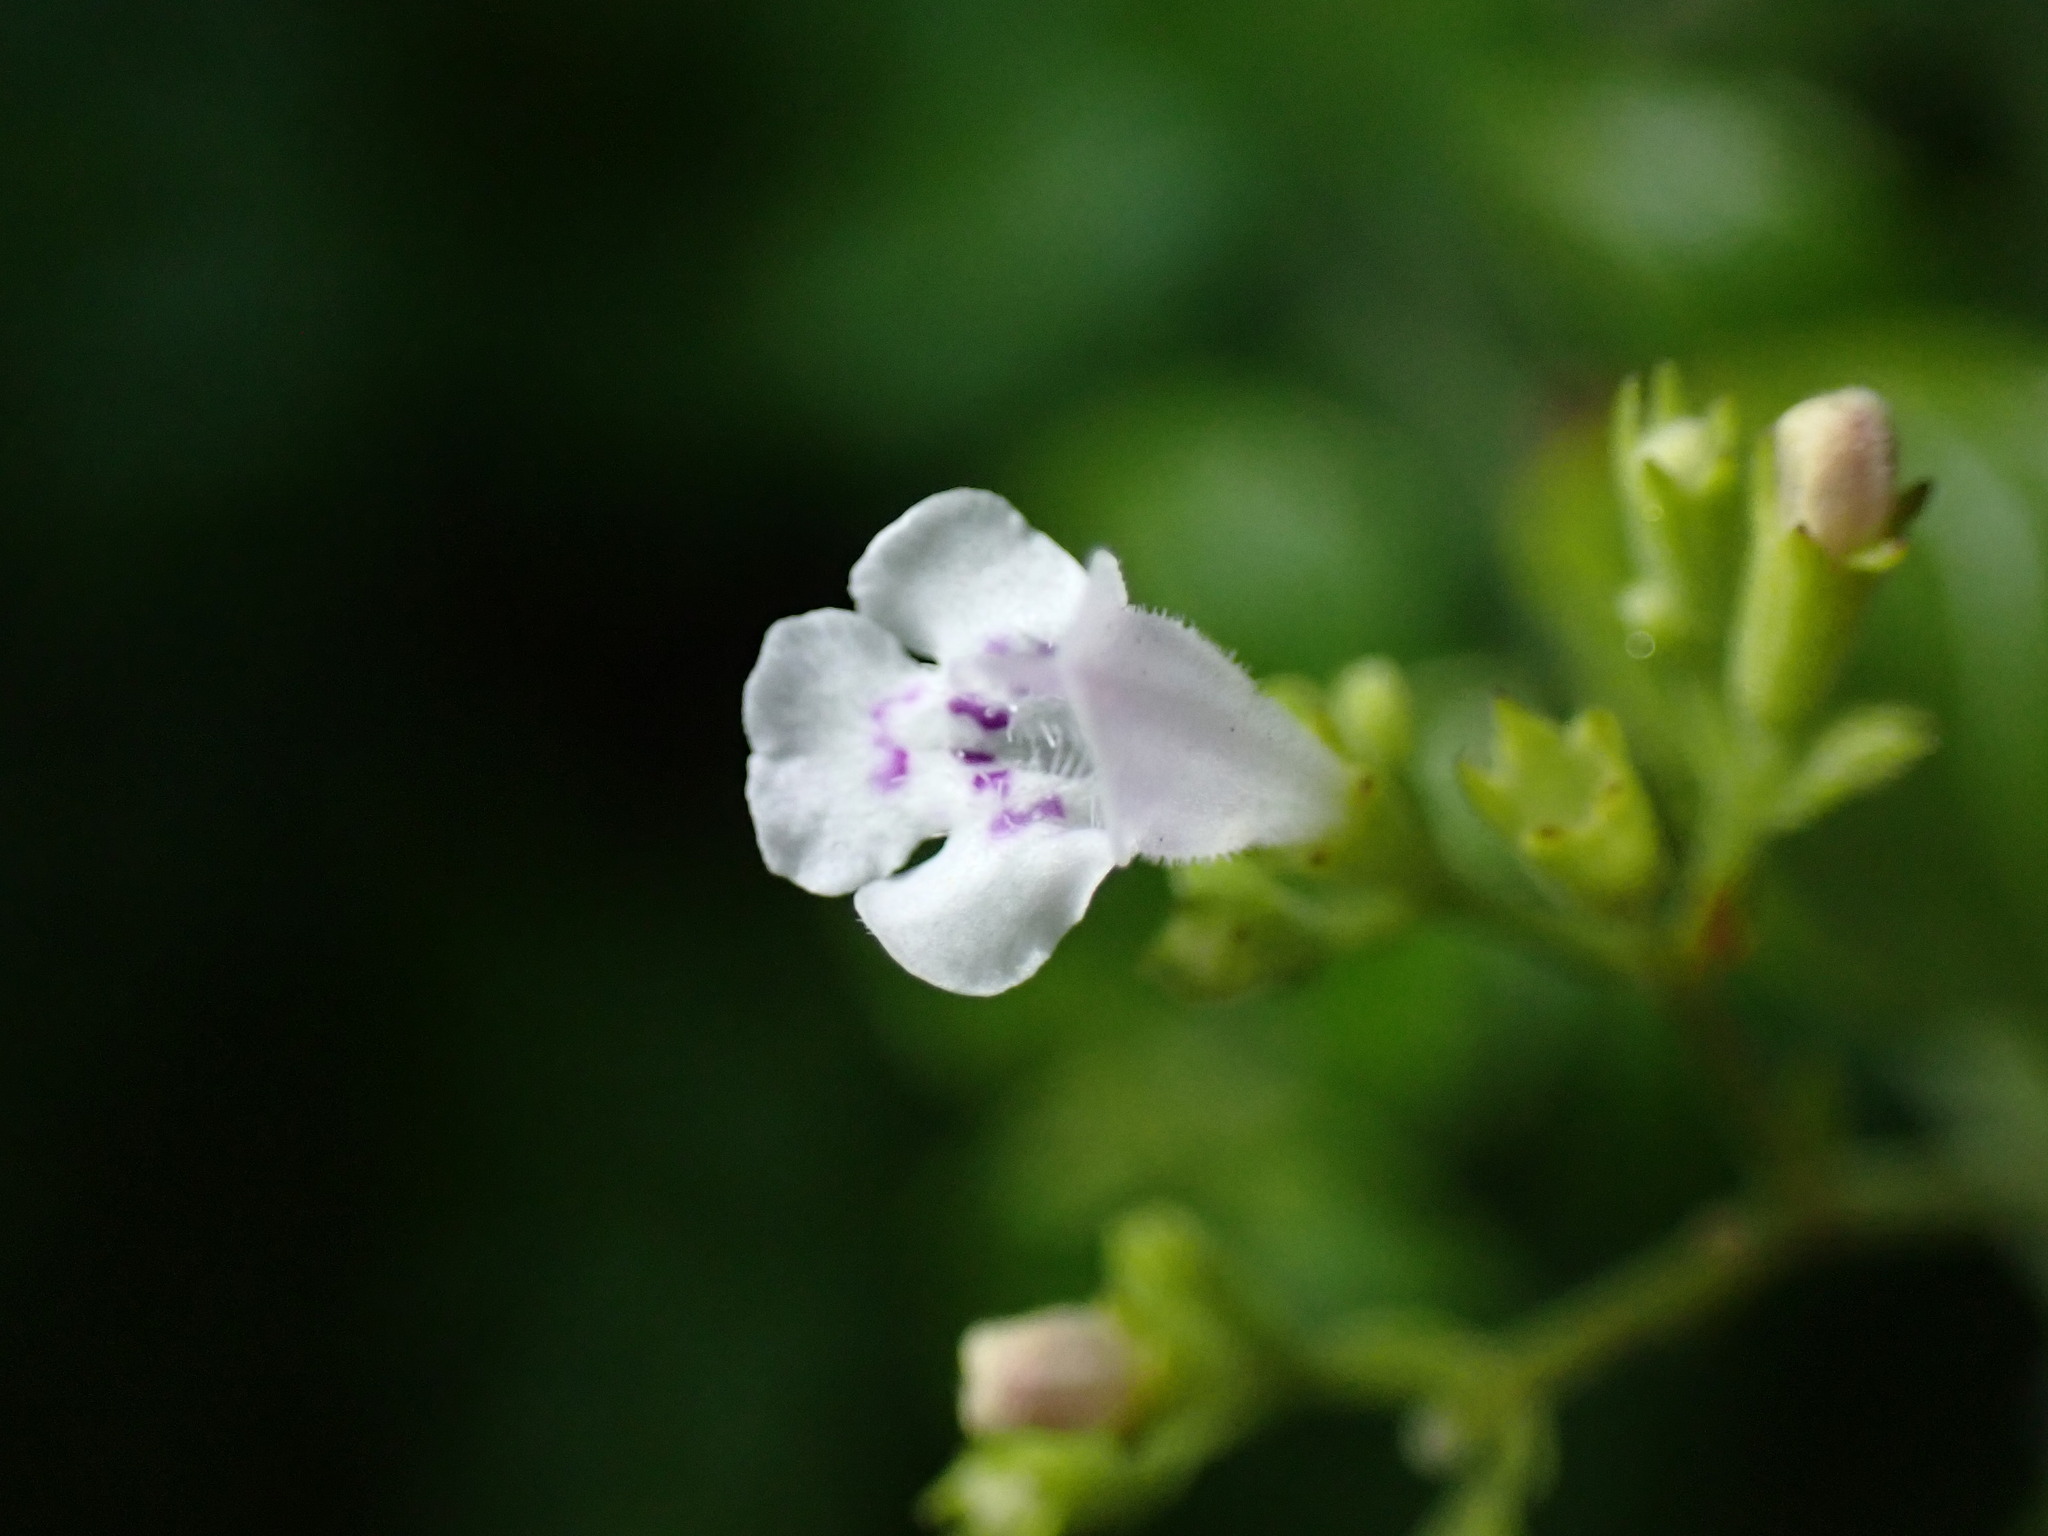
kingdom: Plantae
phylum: Tracheophyta
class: Magnoliopsida
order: Lamiales
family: Lamiaceae
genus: Clinopodium
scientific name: Clinopodium nepeta
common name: Lesser calamint
